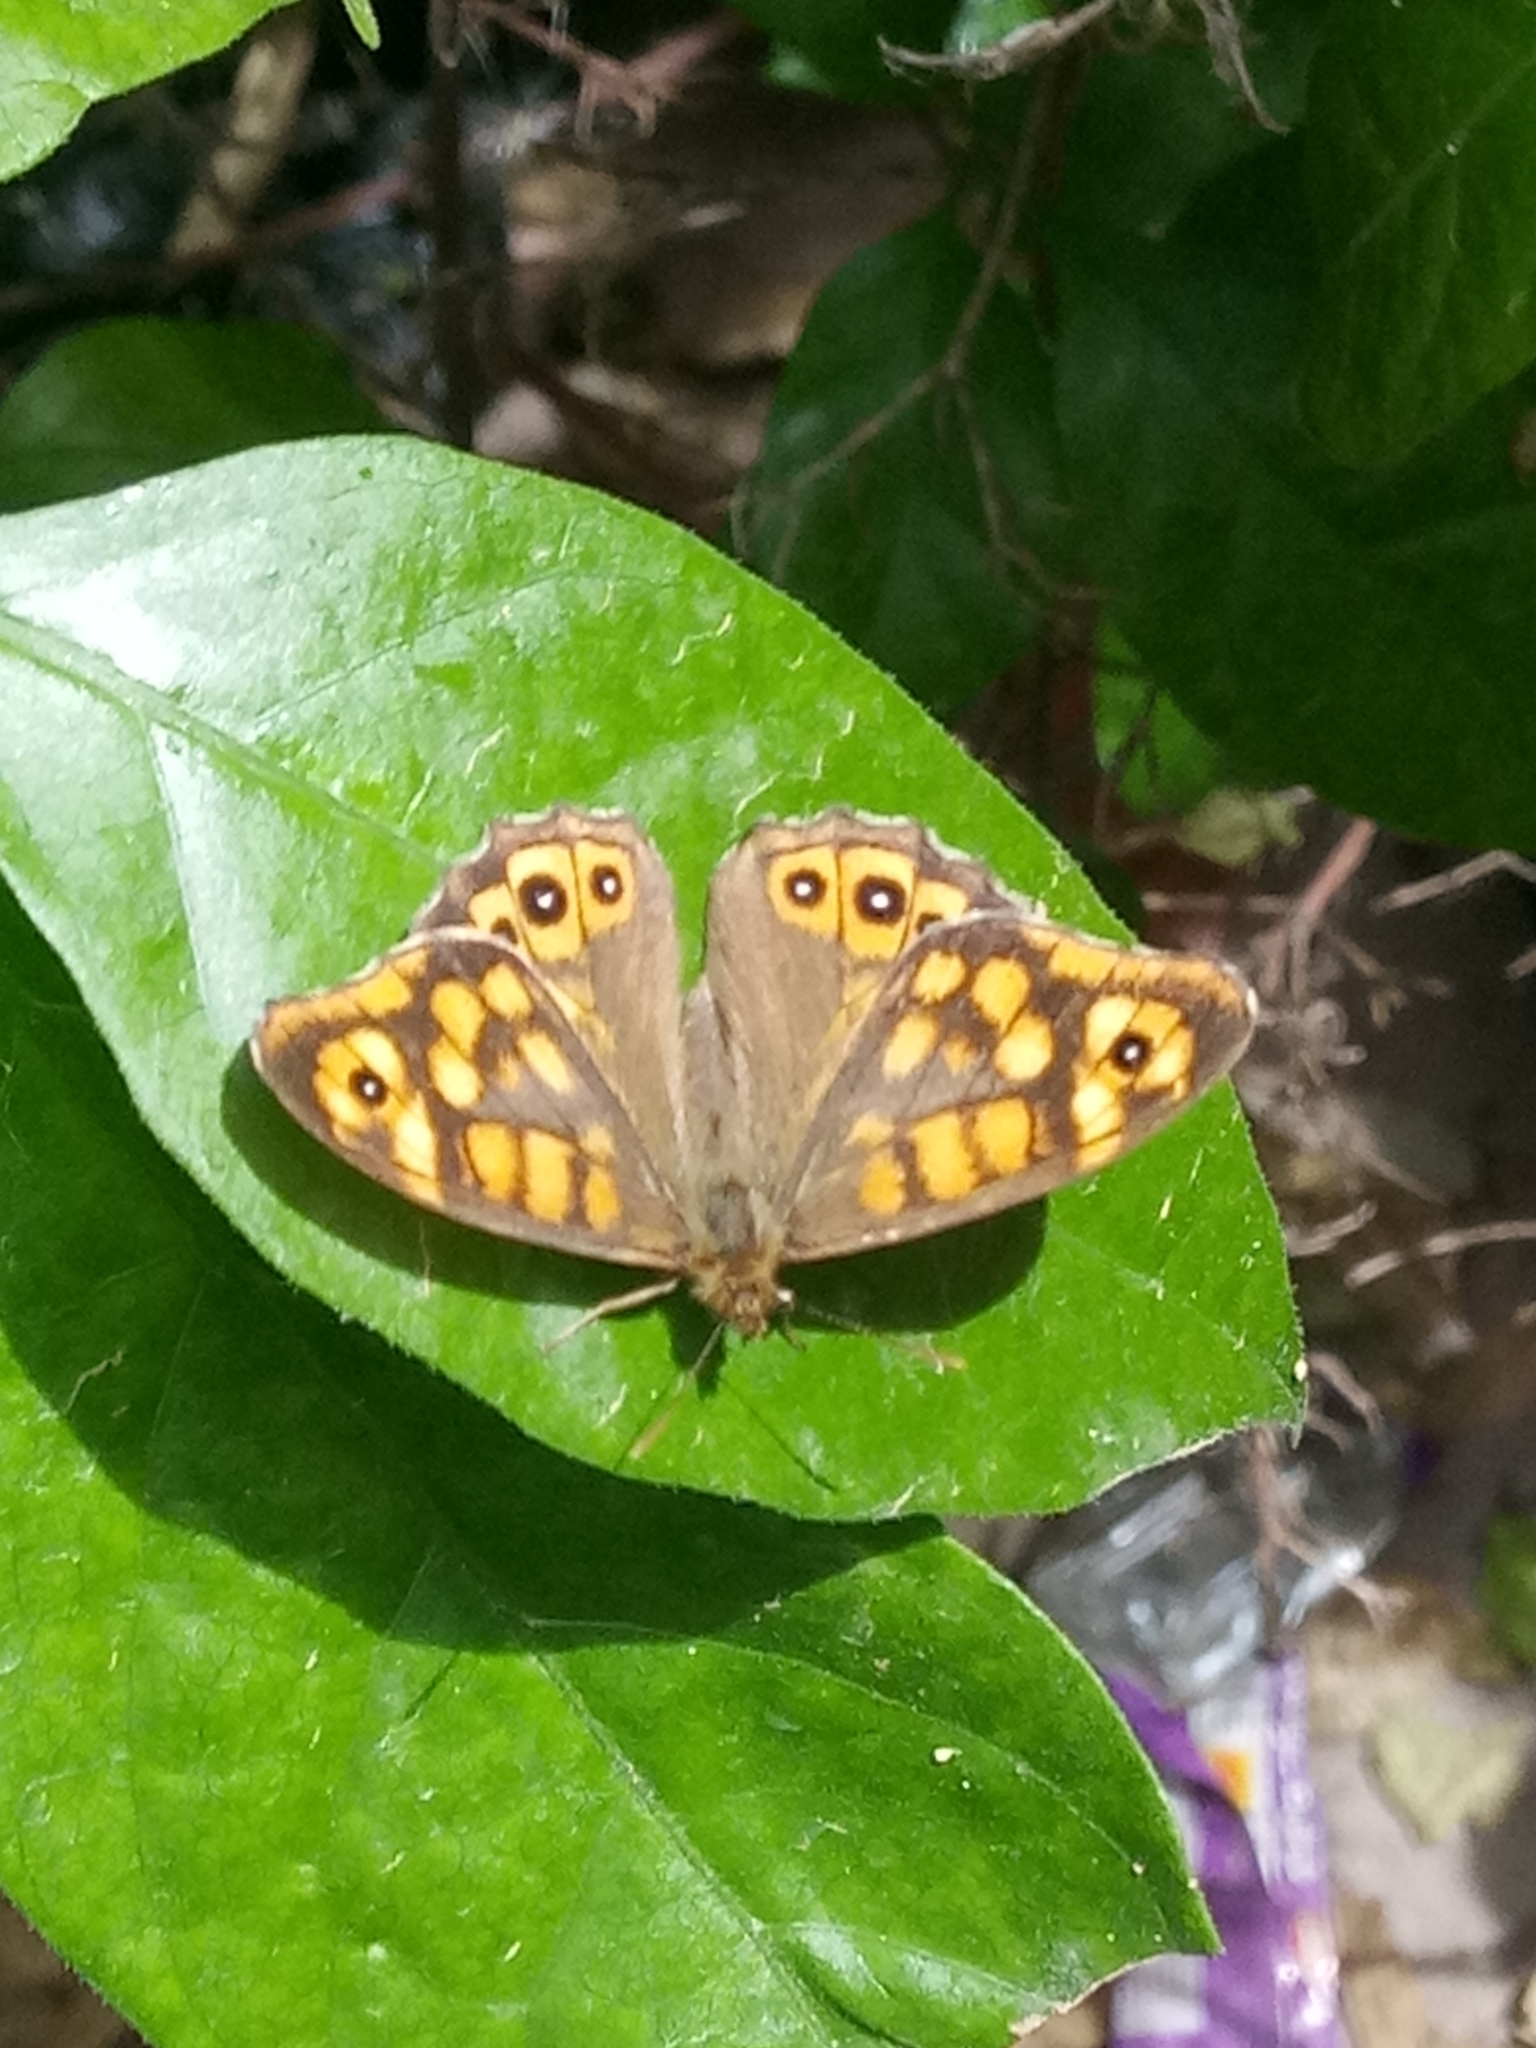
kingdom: Animalia
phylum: Arthropoda
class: Insecta
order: Lepidoptera
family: Nymphalidae
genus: Pararge
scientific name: Pararge aegeria
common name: Speckled wood
